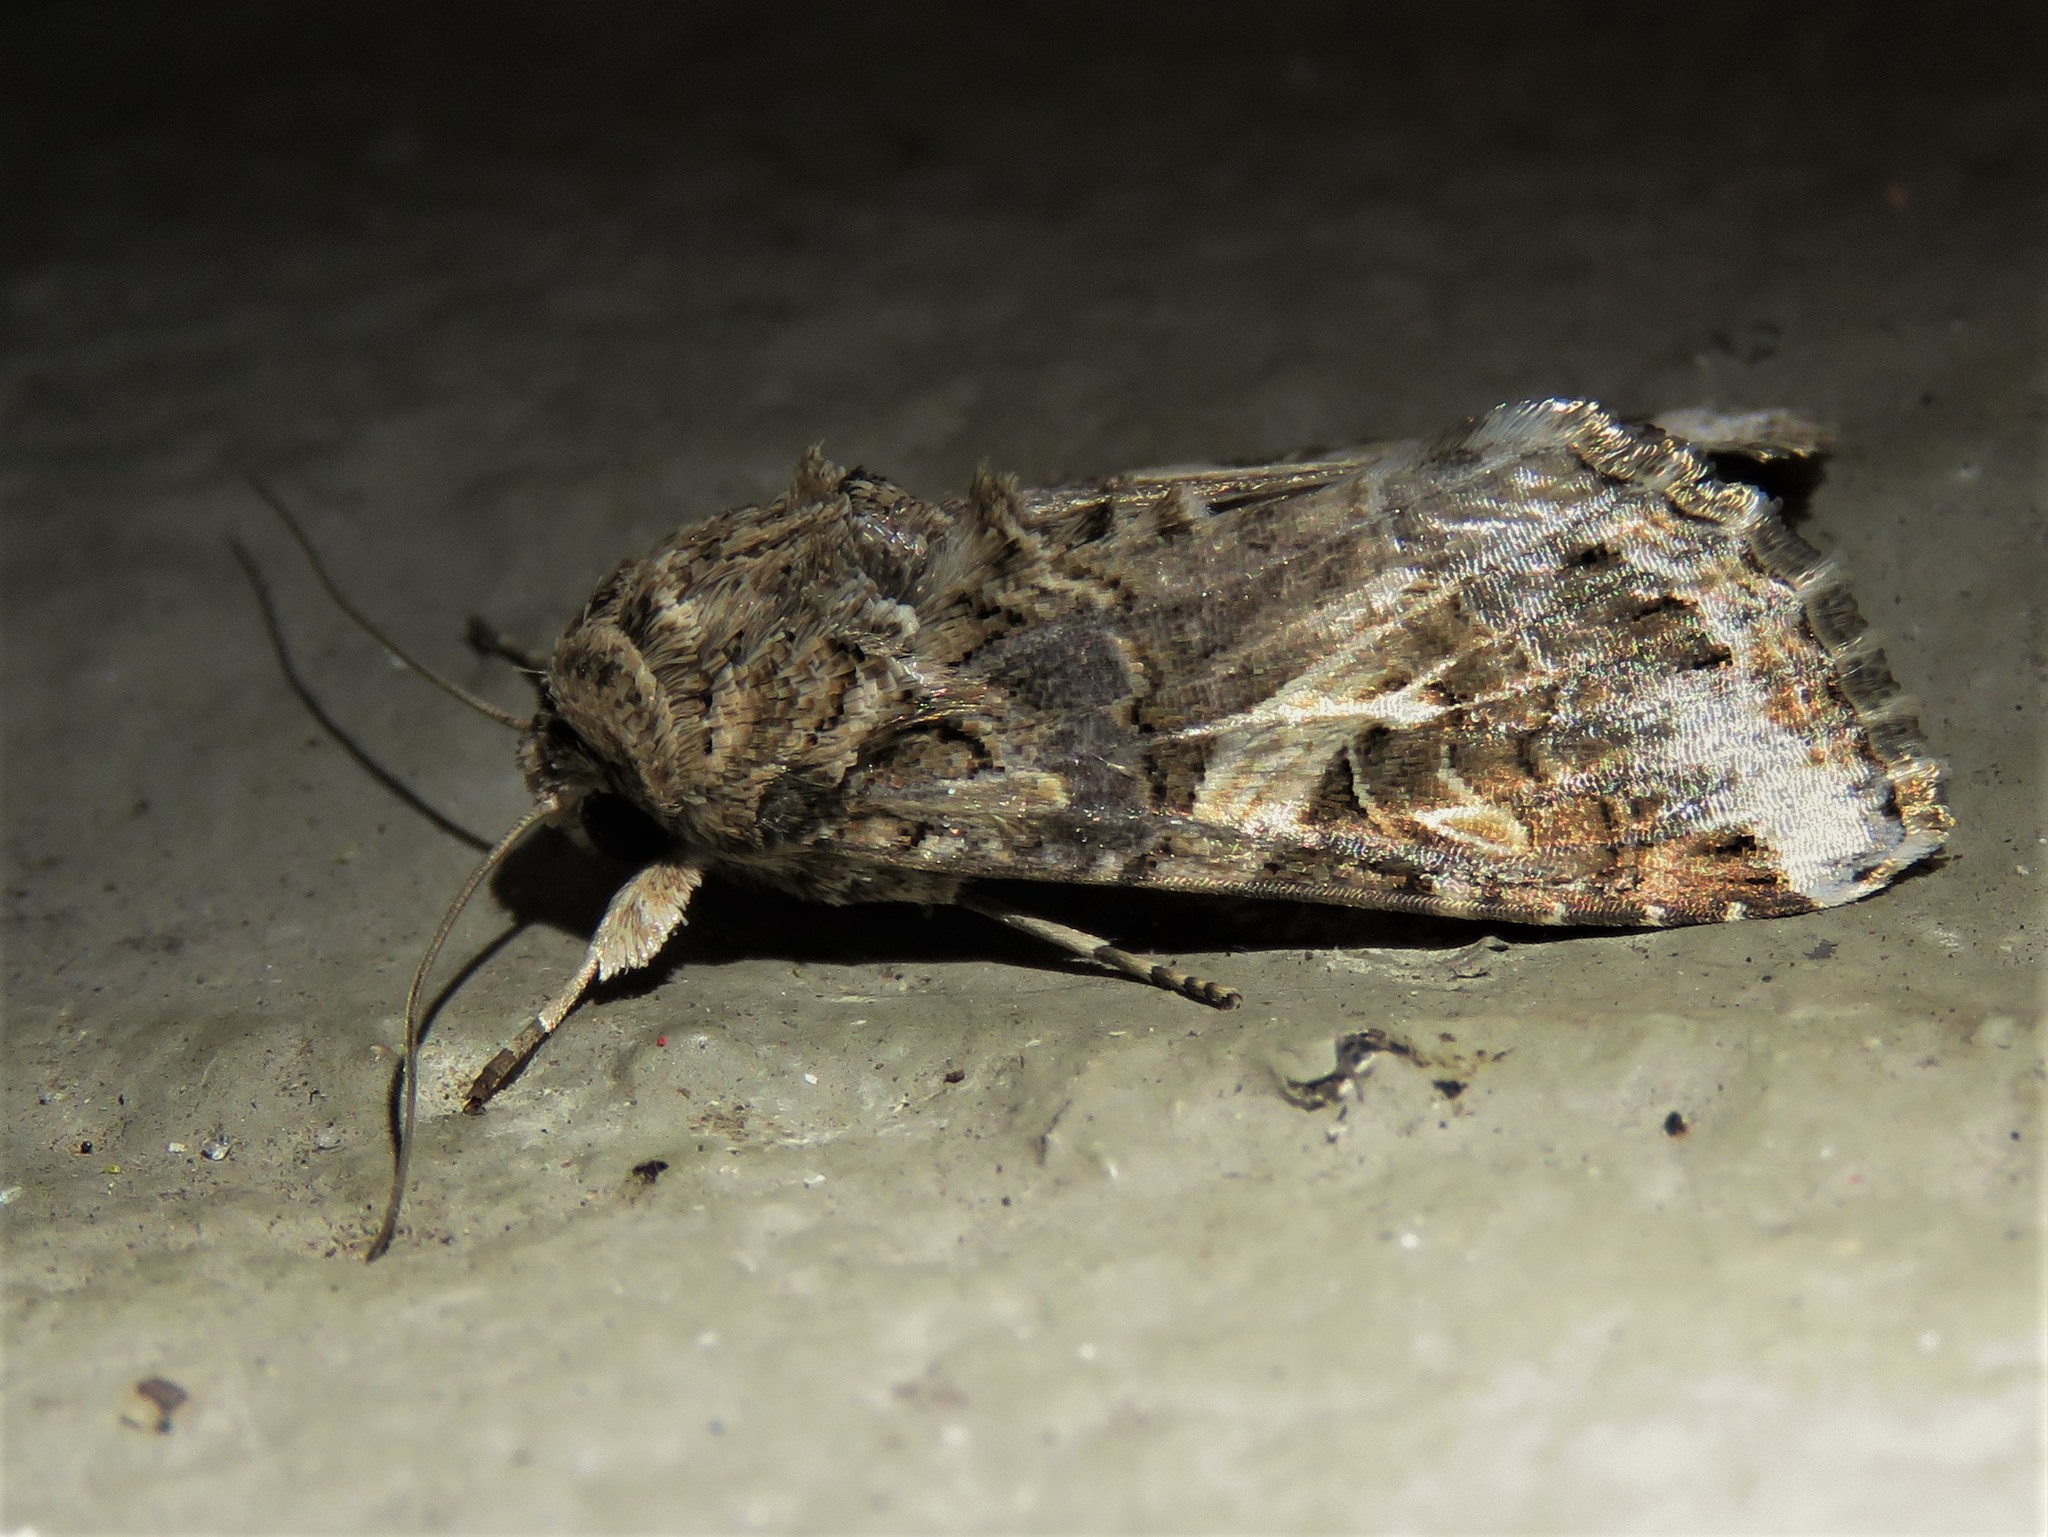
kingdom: Animalia
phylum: Arthropoda
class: Insecta
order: Lepidoptera
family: Noctuidae
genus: Spodoptera
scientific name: Spodoptera ornithogalli
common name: Yellow-striped armyworm
